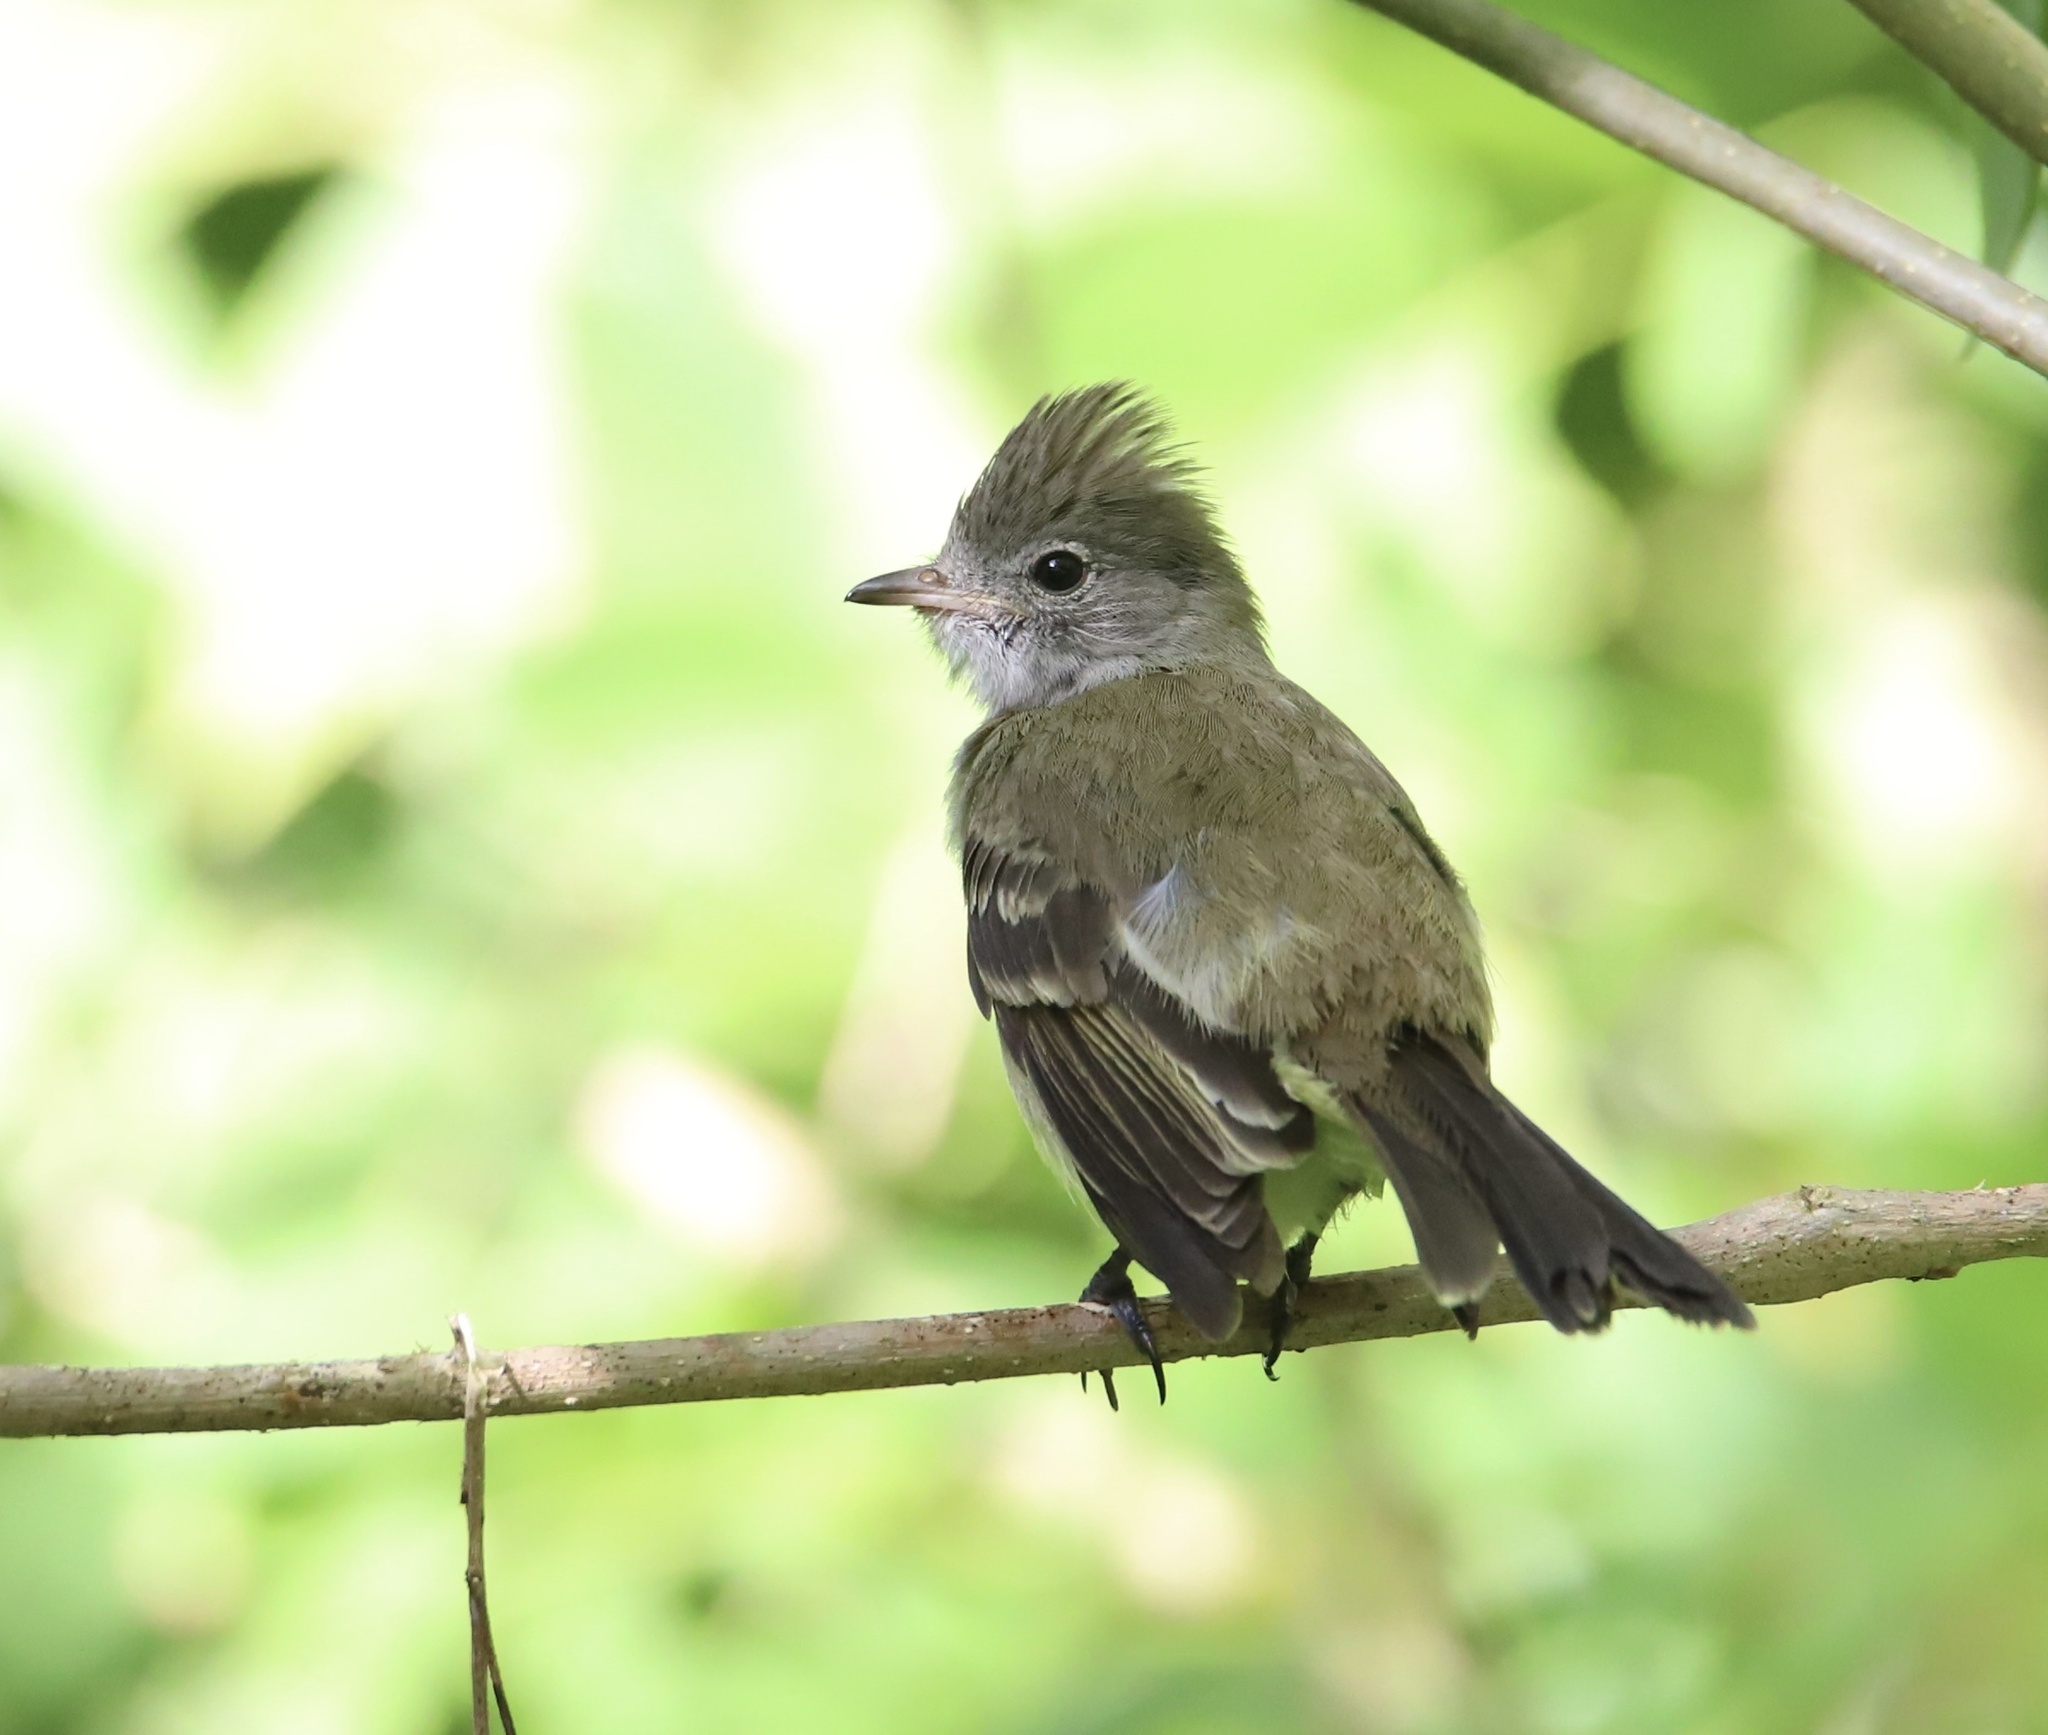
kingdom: Animalia
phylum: Chordata
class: Aves
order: Passeriformes
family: Tyrannidae
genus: Elaenia
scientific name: Elaenia flavogaster
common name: Yellow-bellied elaenia
